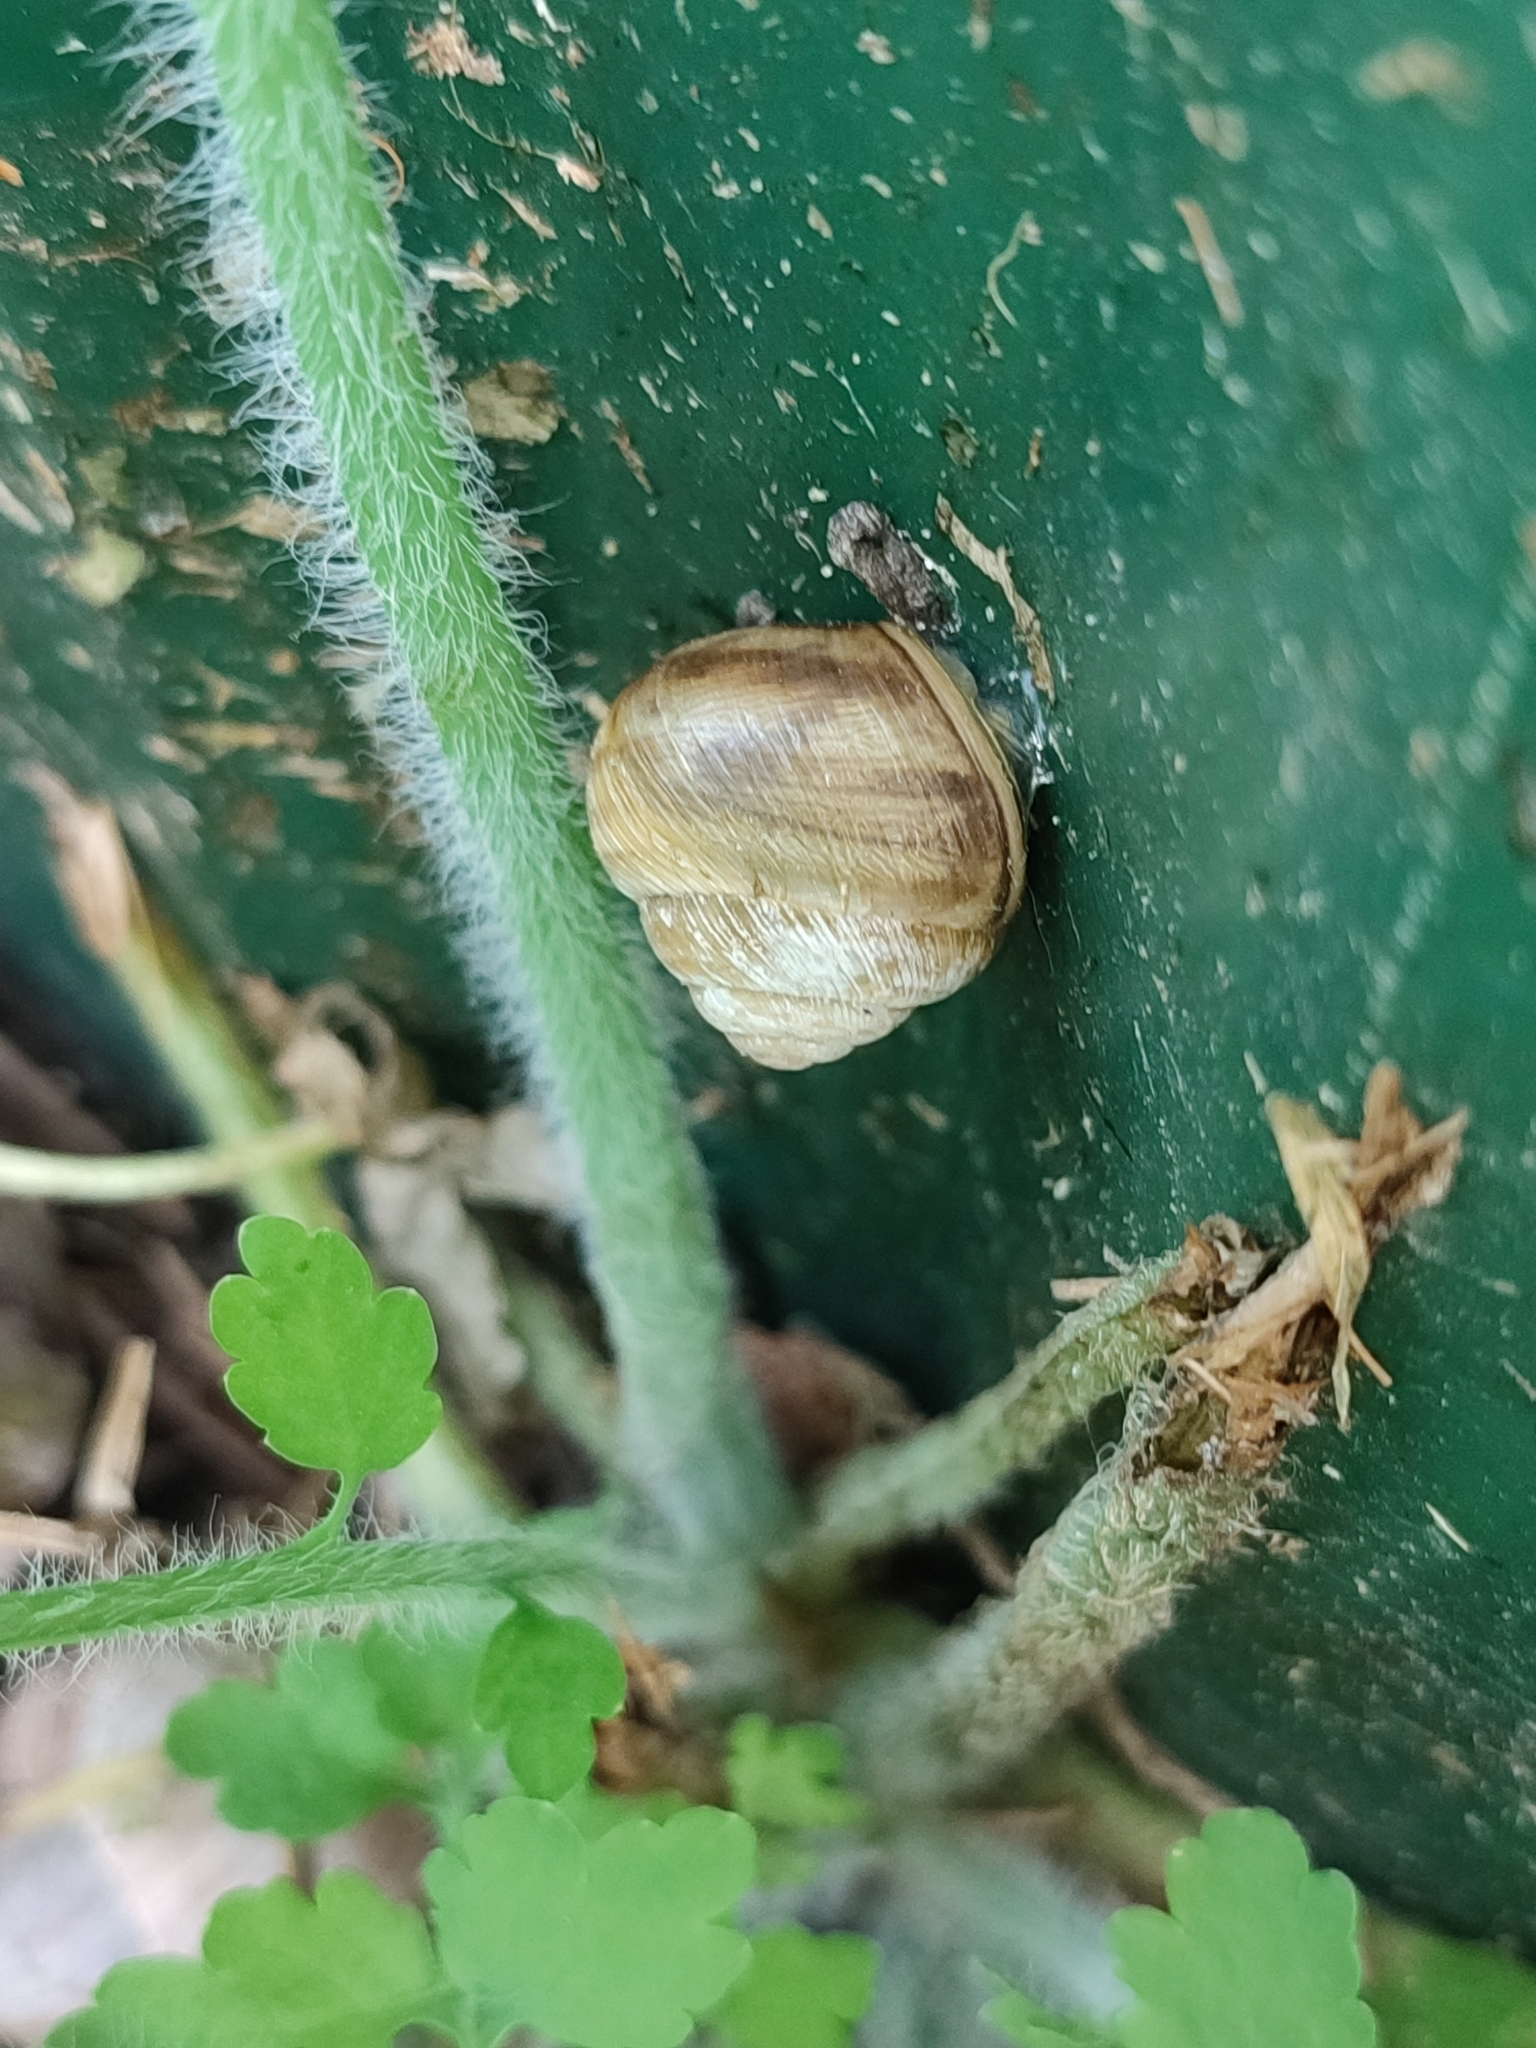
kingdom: Animalia
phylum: Mollusca
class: Gastropoda
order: Stylommatophora
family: Helicidae
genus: Caucasotachea
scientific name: Caucasotachea vindobonensis
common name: European helicid land snail
